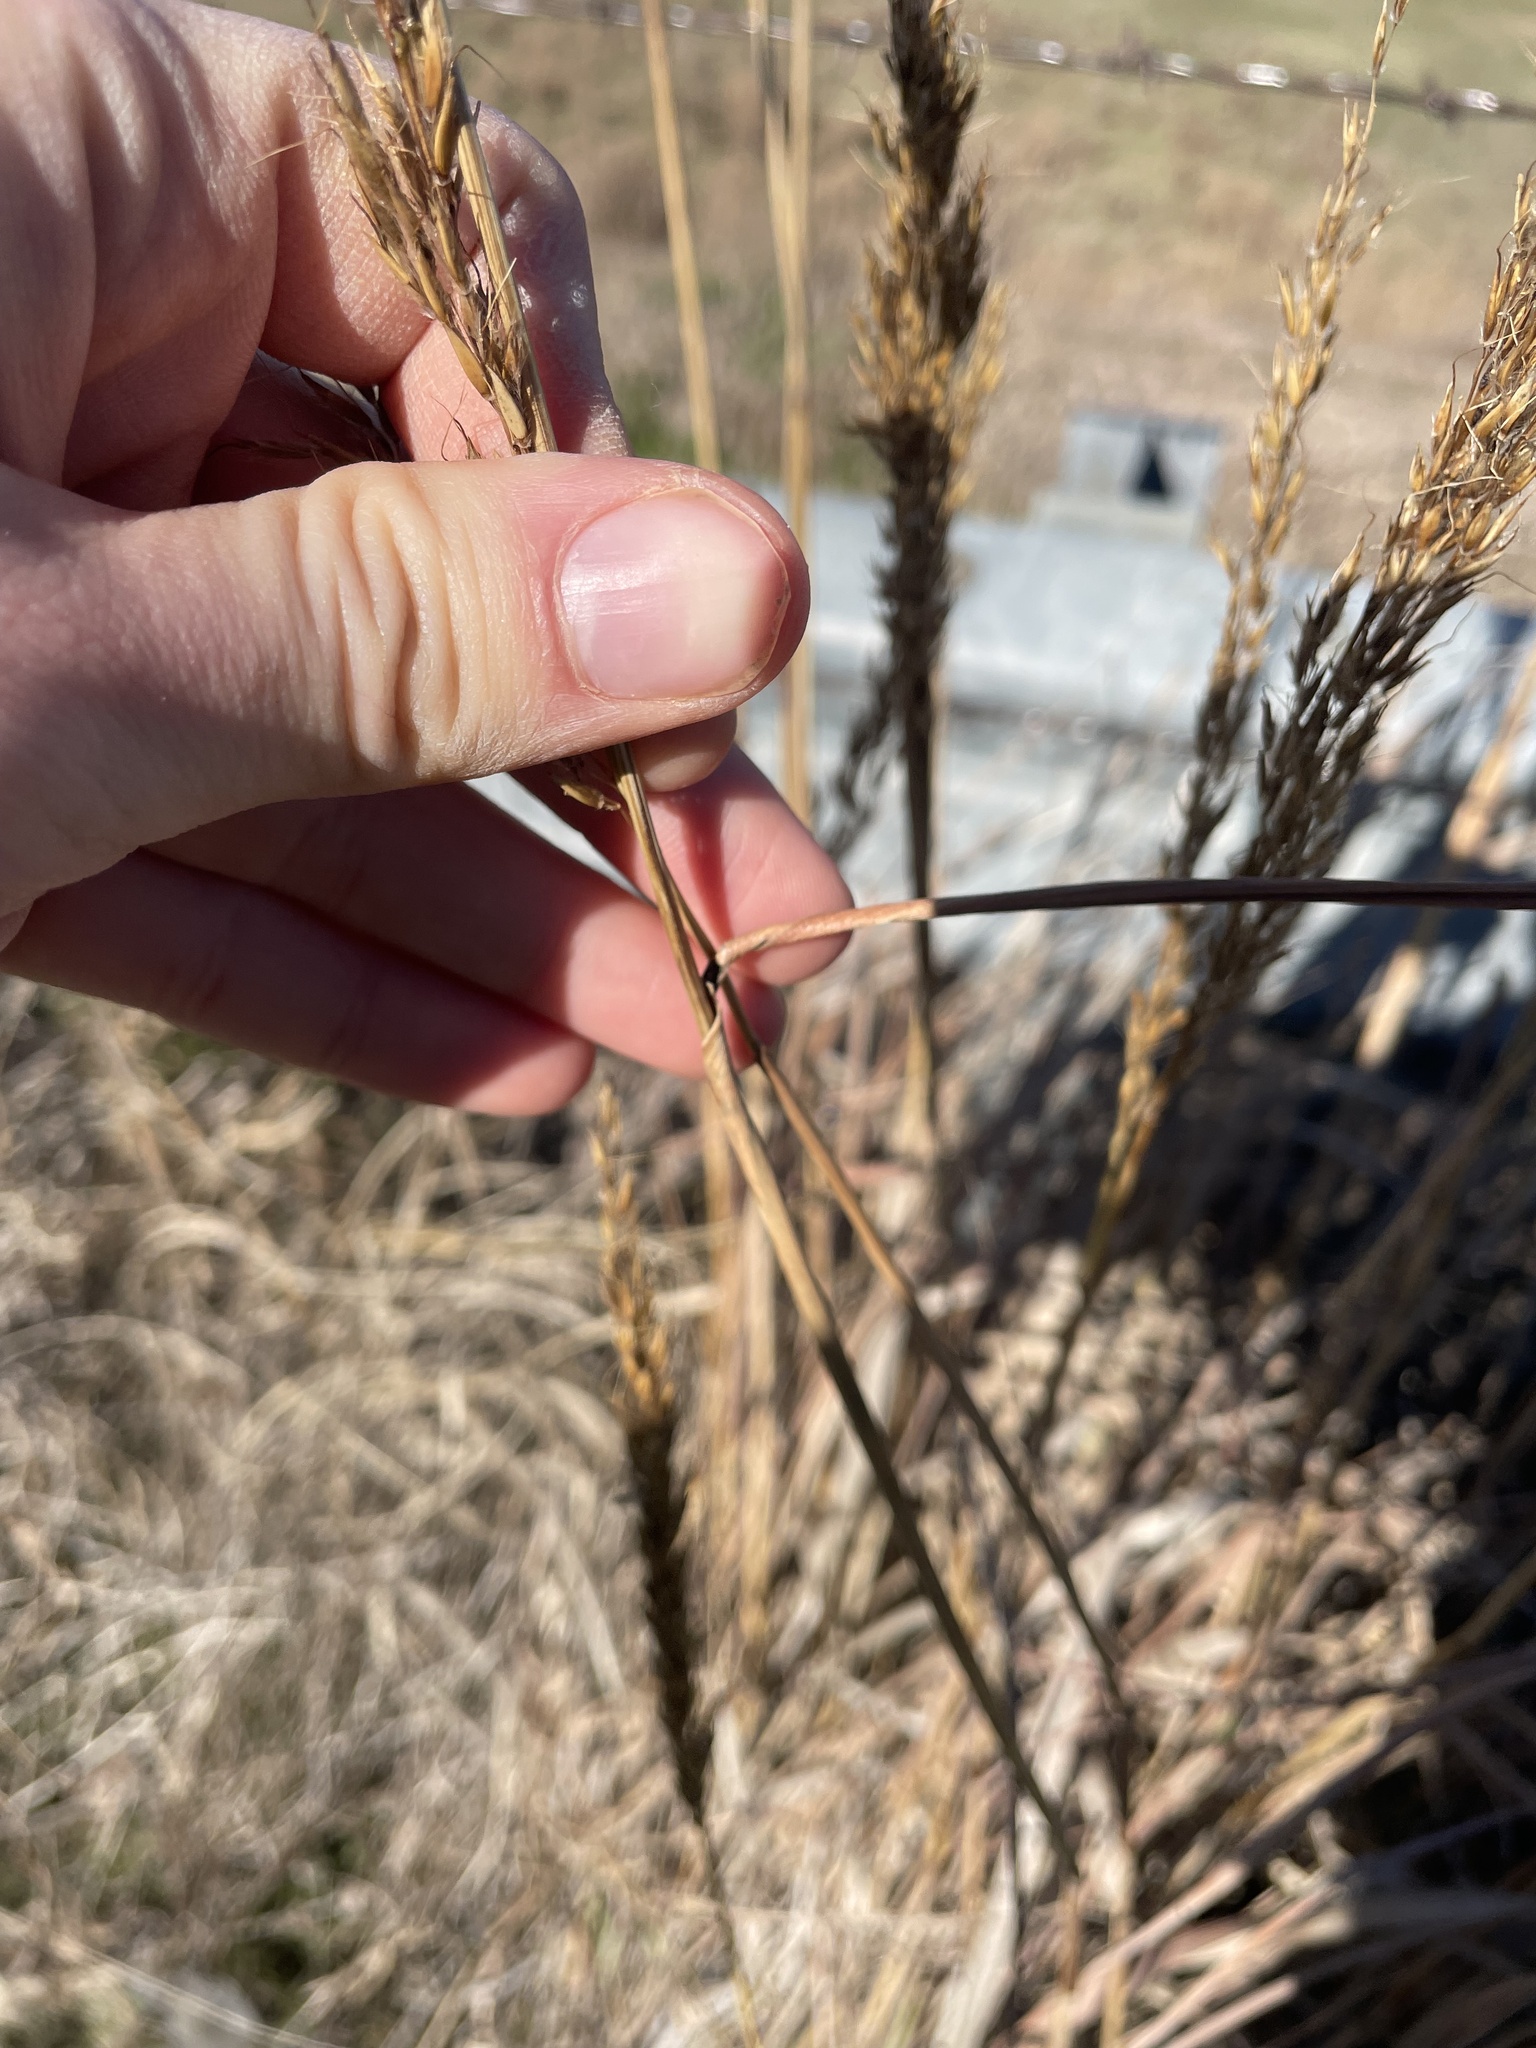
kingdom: Plantae
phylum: Tracheophyta
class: Liliopsida
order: Poales
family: Poaceae
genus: Sorghastrum
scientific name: Sorghastrum nutans
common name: Indian grass
